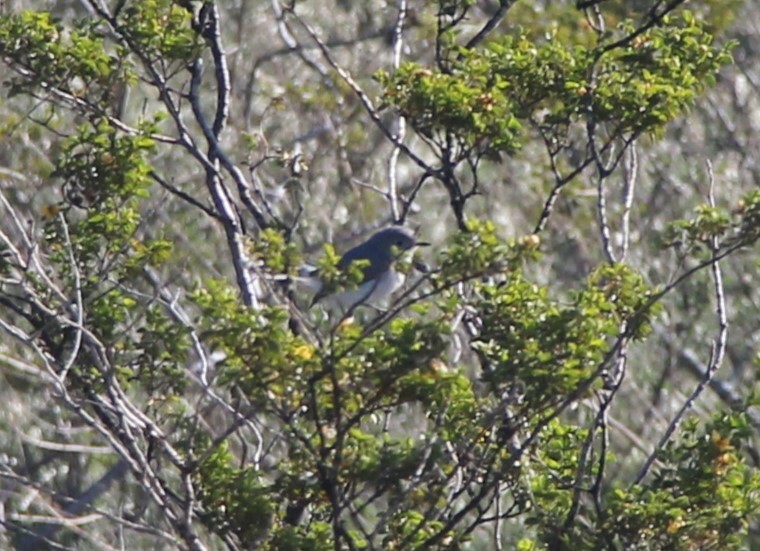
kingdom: Animalia
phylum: Chordata
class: Aves
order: Passeriformes
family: Polioptilidae
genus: Polioptila
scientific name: Polioptila caerulea
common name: Blue-gray gnatcatcher
